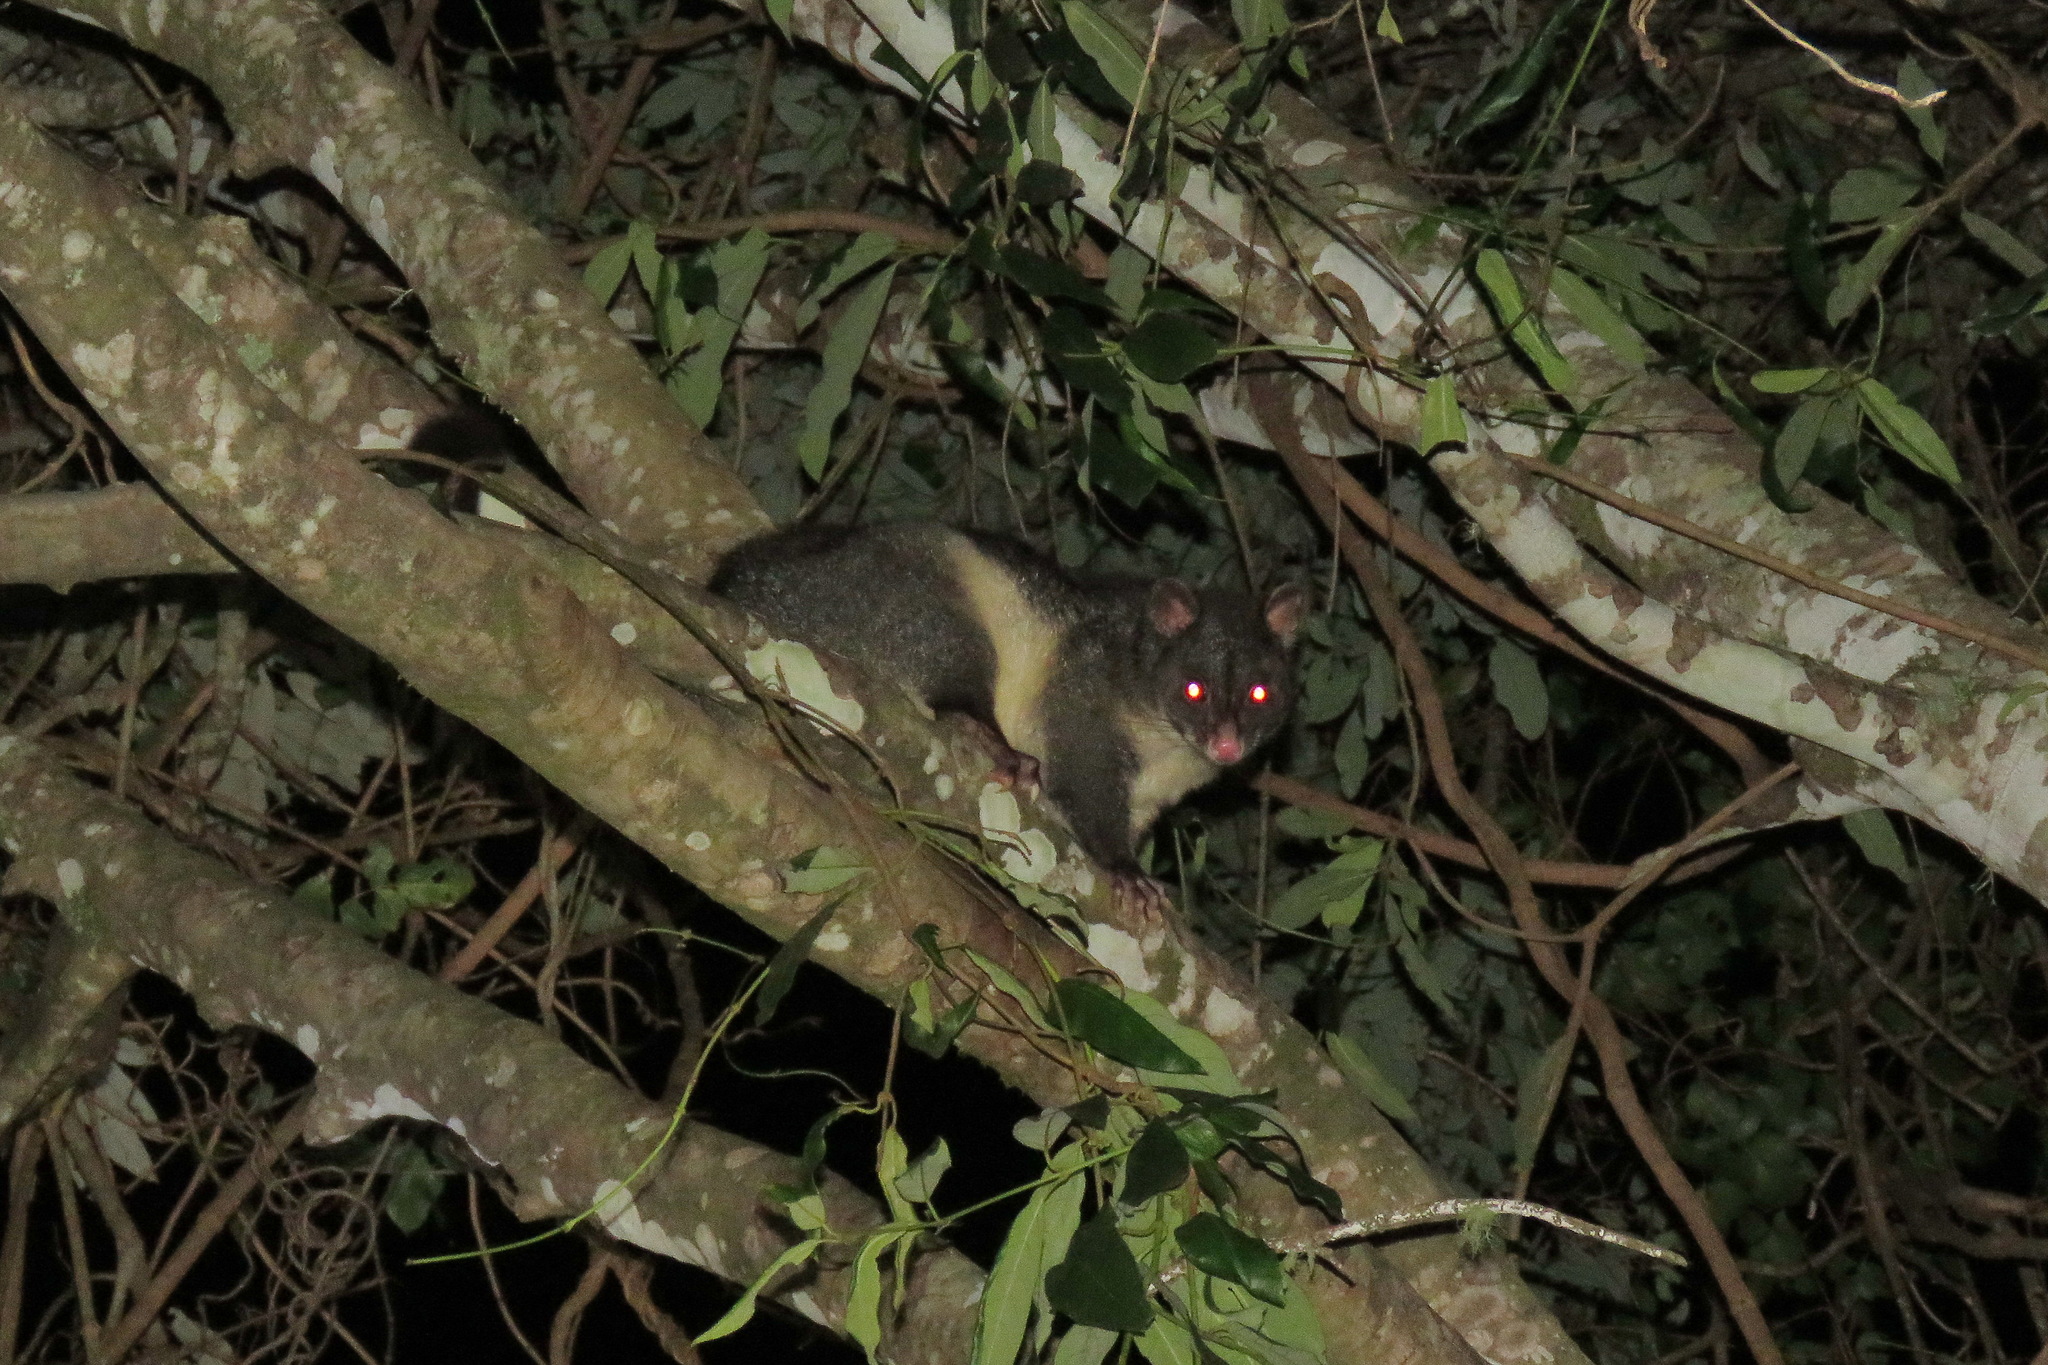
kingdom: Animalia
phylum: Chordata
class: Mammalia
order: Diprotodontia
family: Phalangeridae
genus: Trichosurus
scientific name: Trichosurus caninus
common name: Short-eared possum
